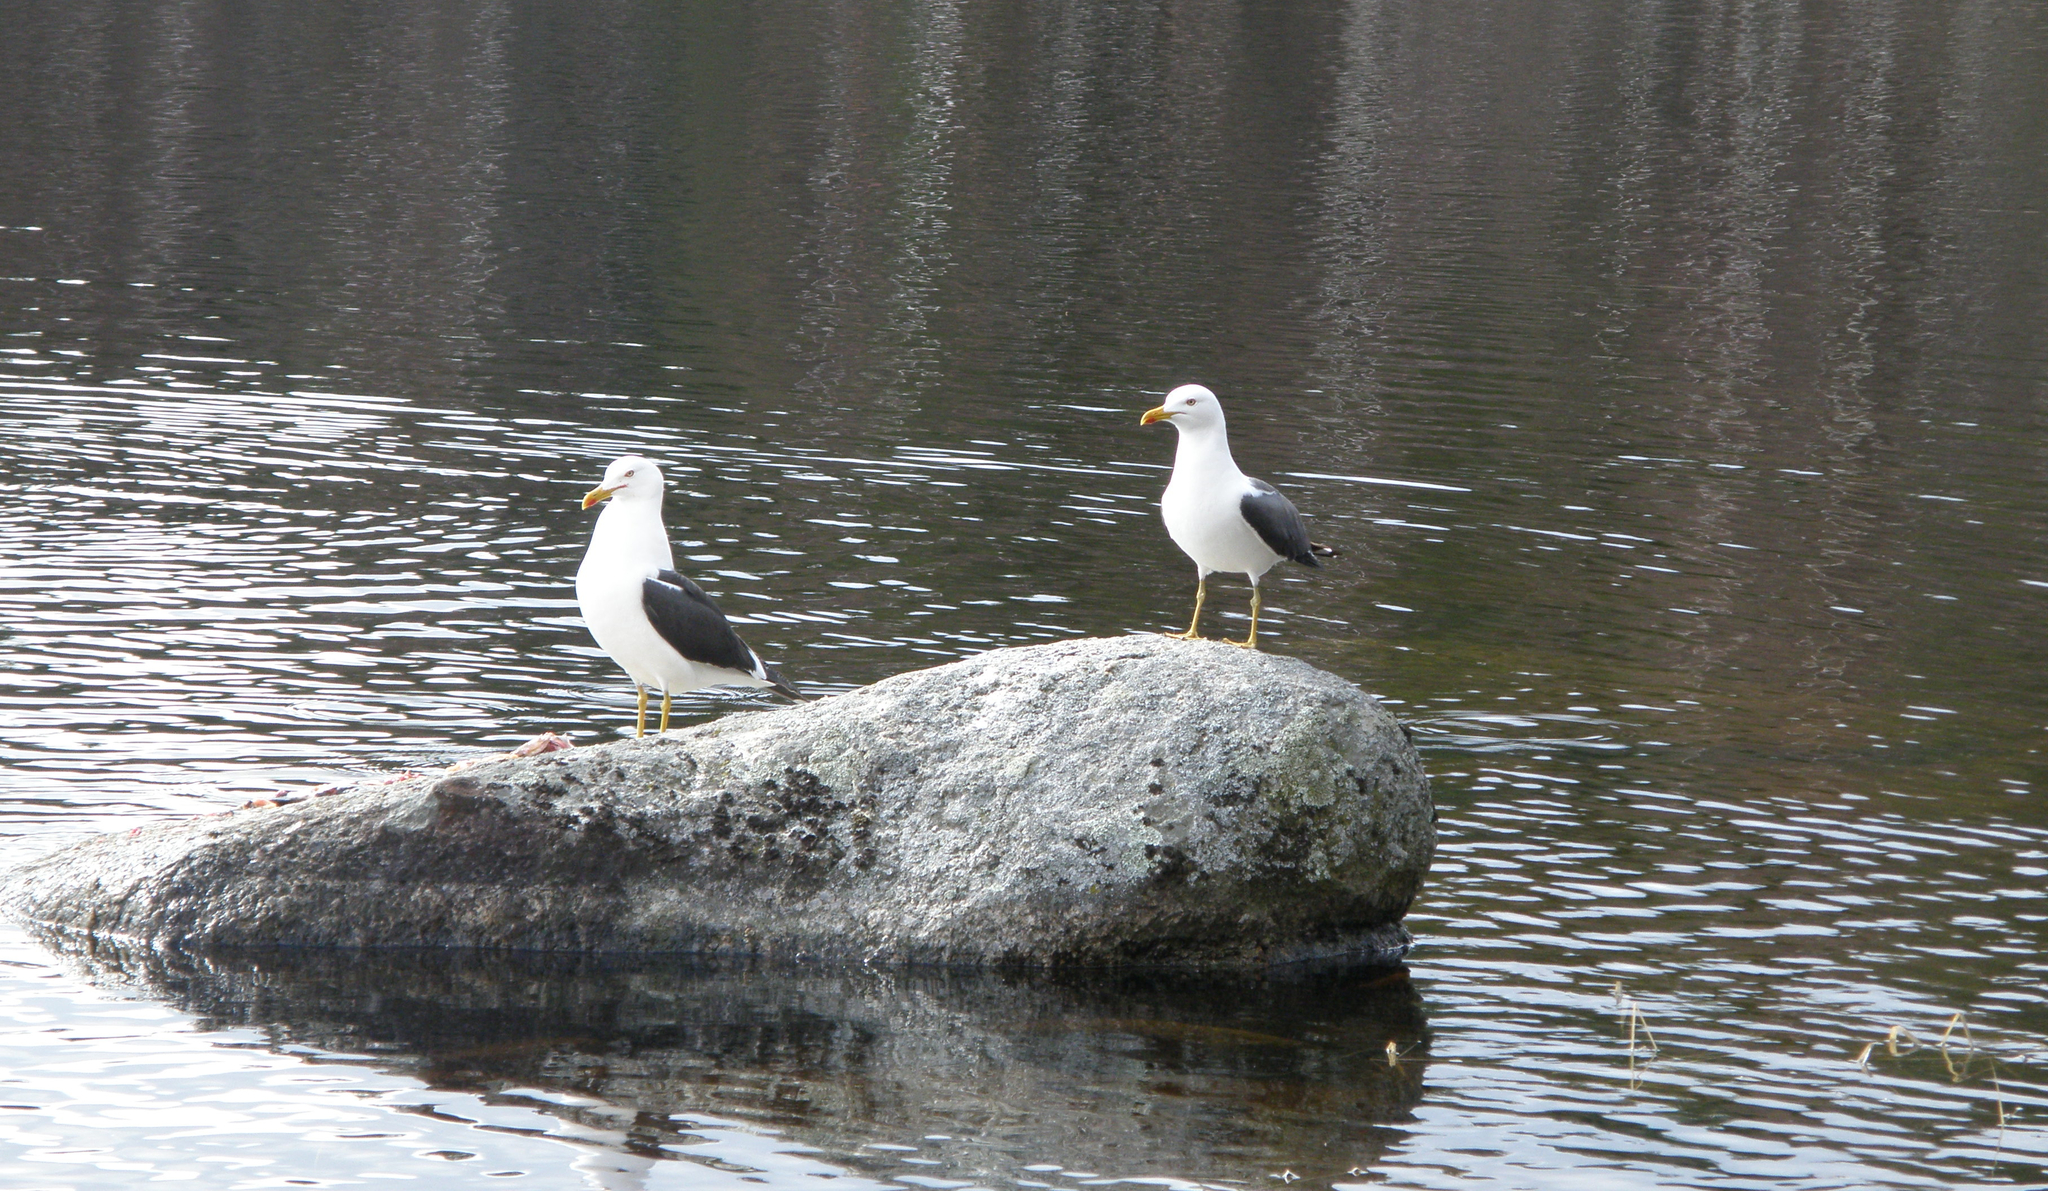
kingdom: Animalia
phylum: Chordata
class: Aves
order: Charadriiformes
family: Laridae
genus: Larus
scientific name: Larus fuscus
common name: Lesser black-backed gull
